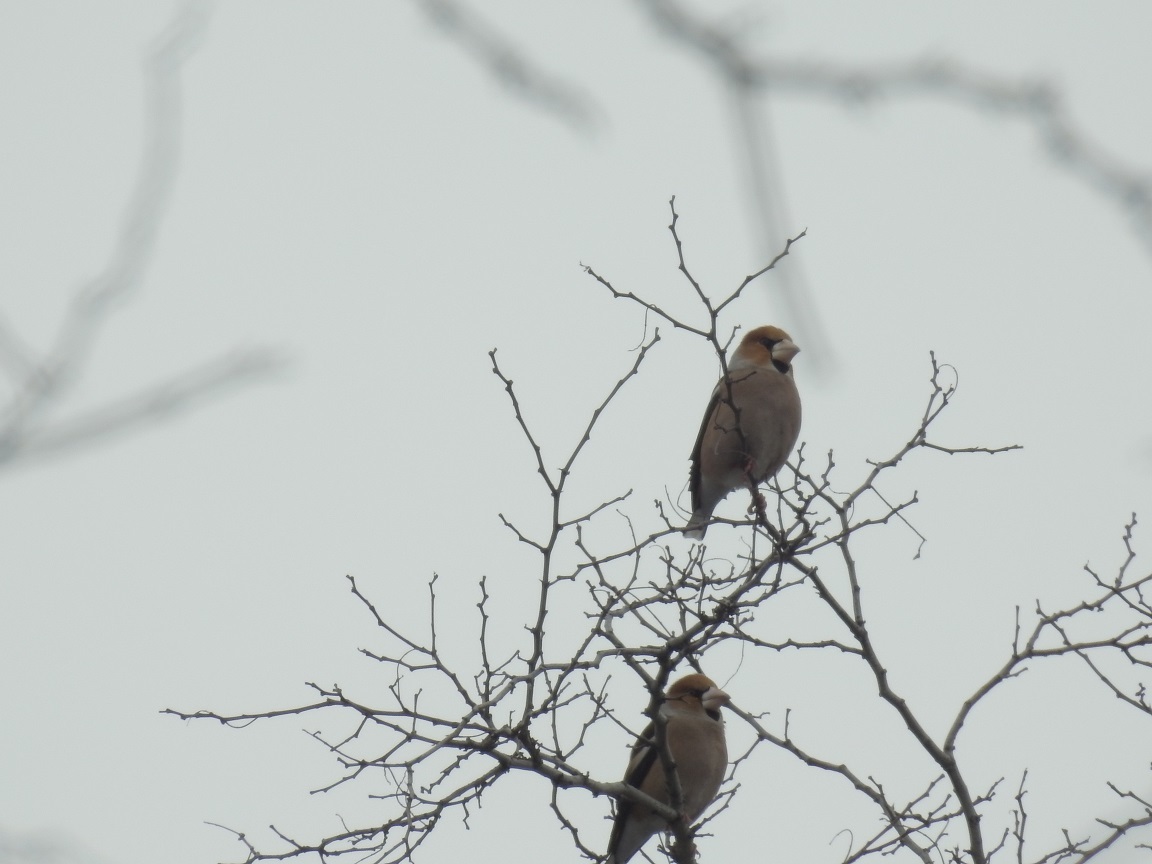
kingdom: Animalia
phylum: Chordata
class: Aves
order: Passeriformes
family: Fringillidae
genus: Coccothraustes
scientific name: Coccothraustes coccothraustes
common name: Hawfinch
